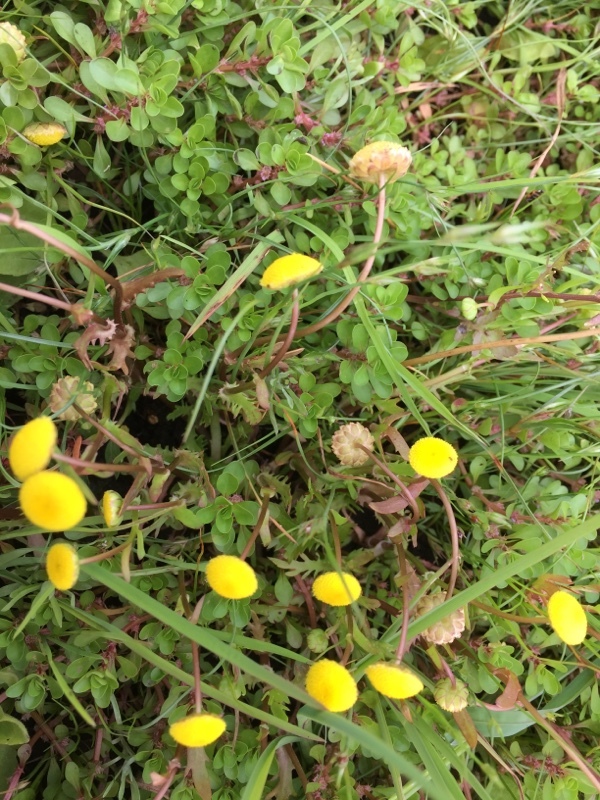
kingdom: Plantae
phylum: Tracheophyta
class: Magnoliopsida
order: Asterales
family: Asteraceae
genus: Cotula
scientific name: Cotula coronopifolia
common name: Buttonweed
